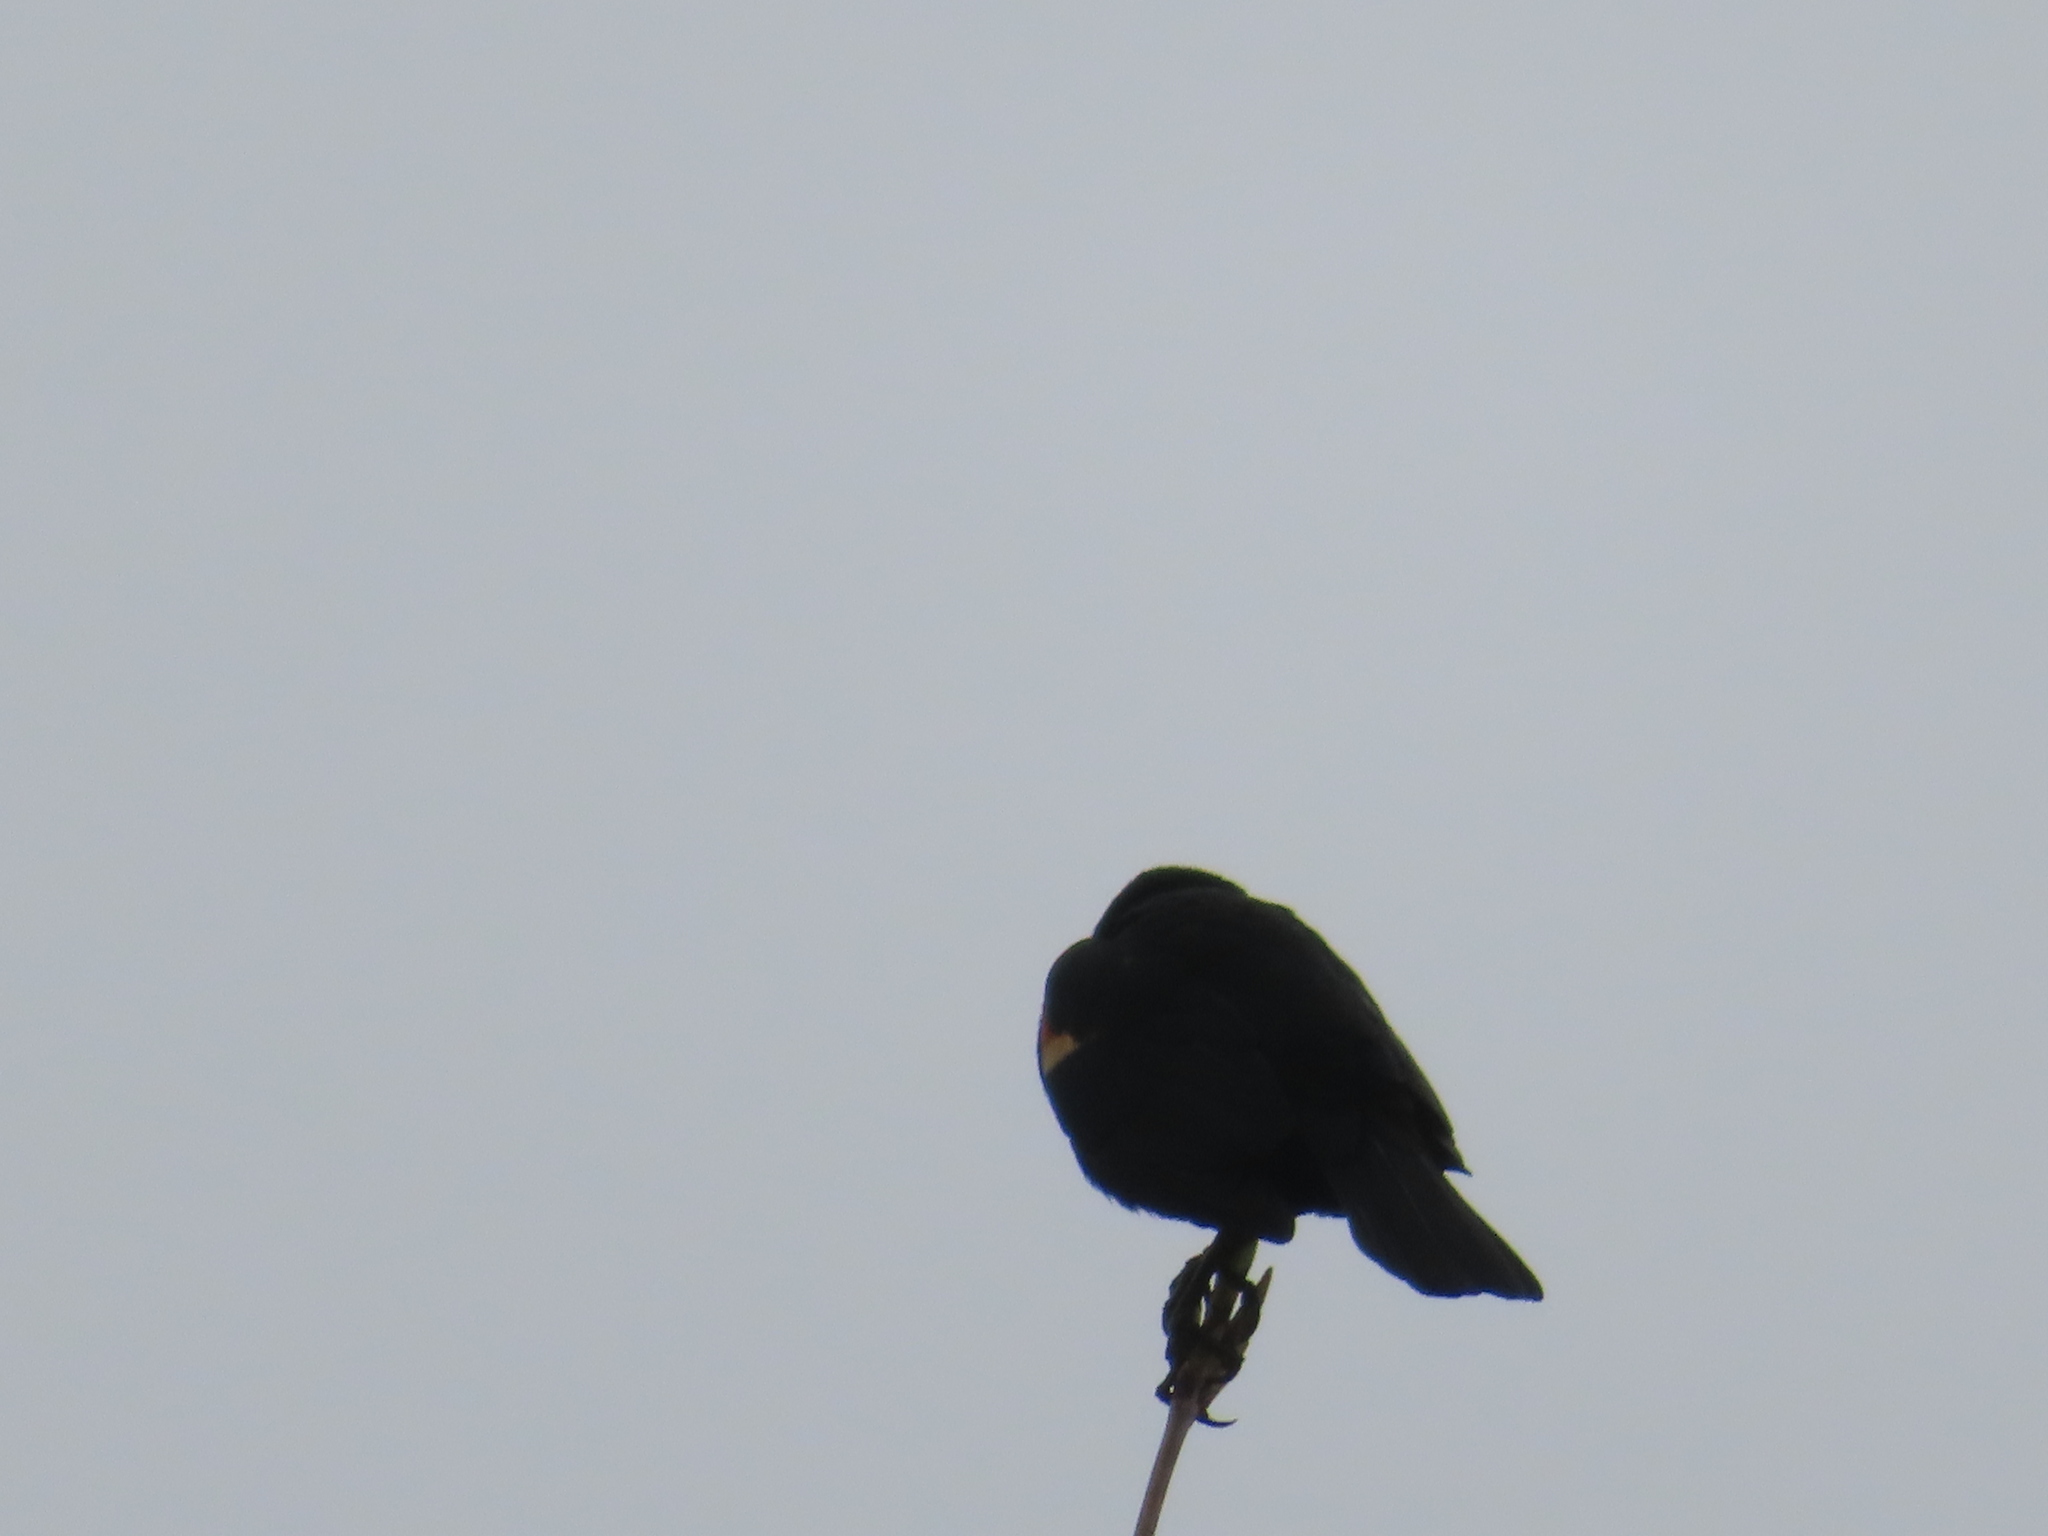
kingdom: Animalia
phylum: Chordata
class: Aves
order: Passeriformes
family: Icteridae
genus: Agelaius
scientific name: Agelaius phoeniceus
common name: Red-winged blackbird
